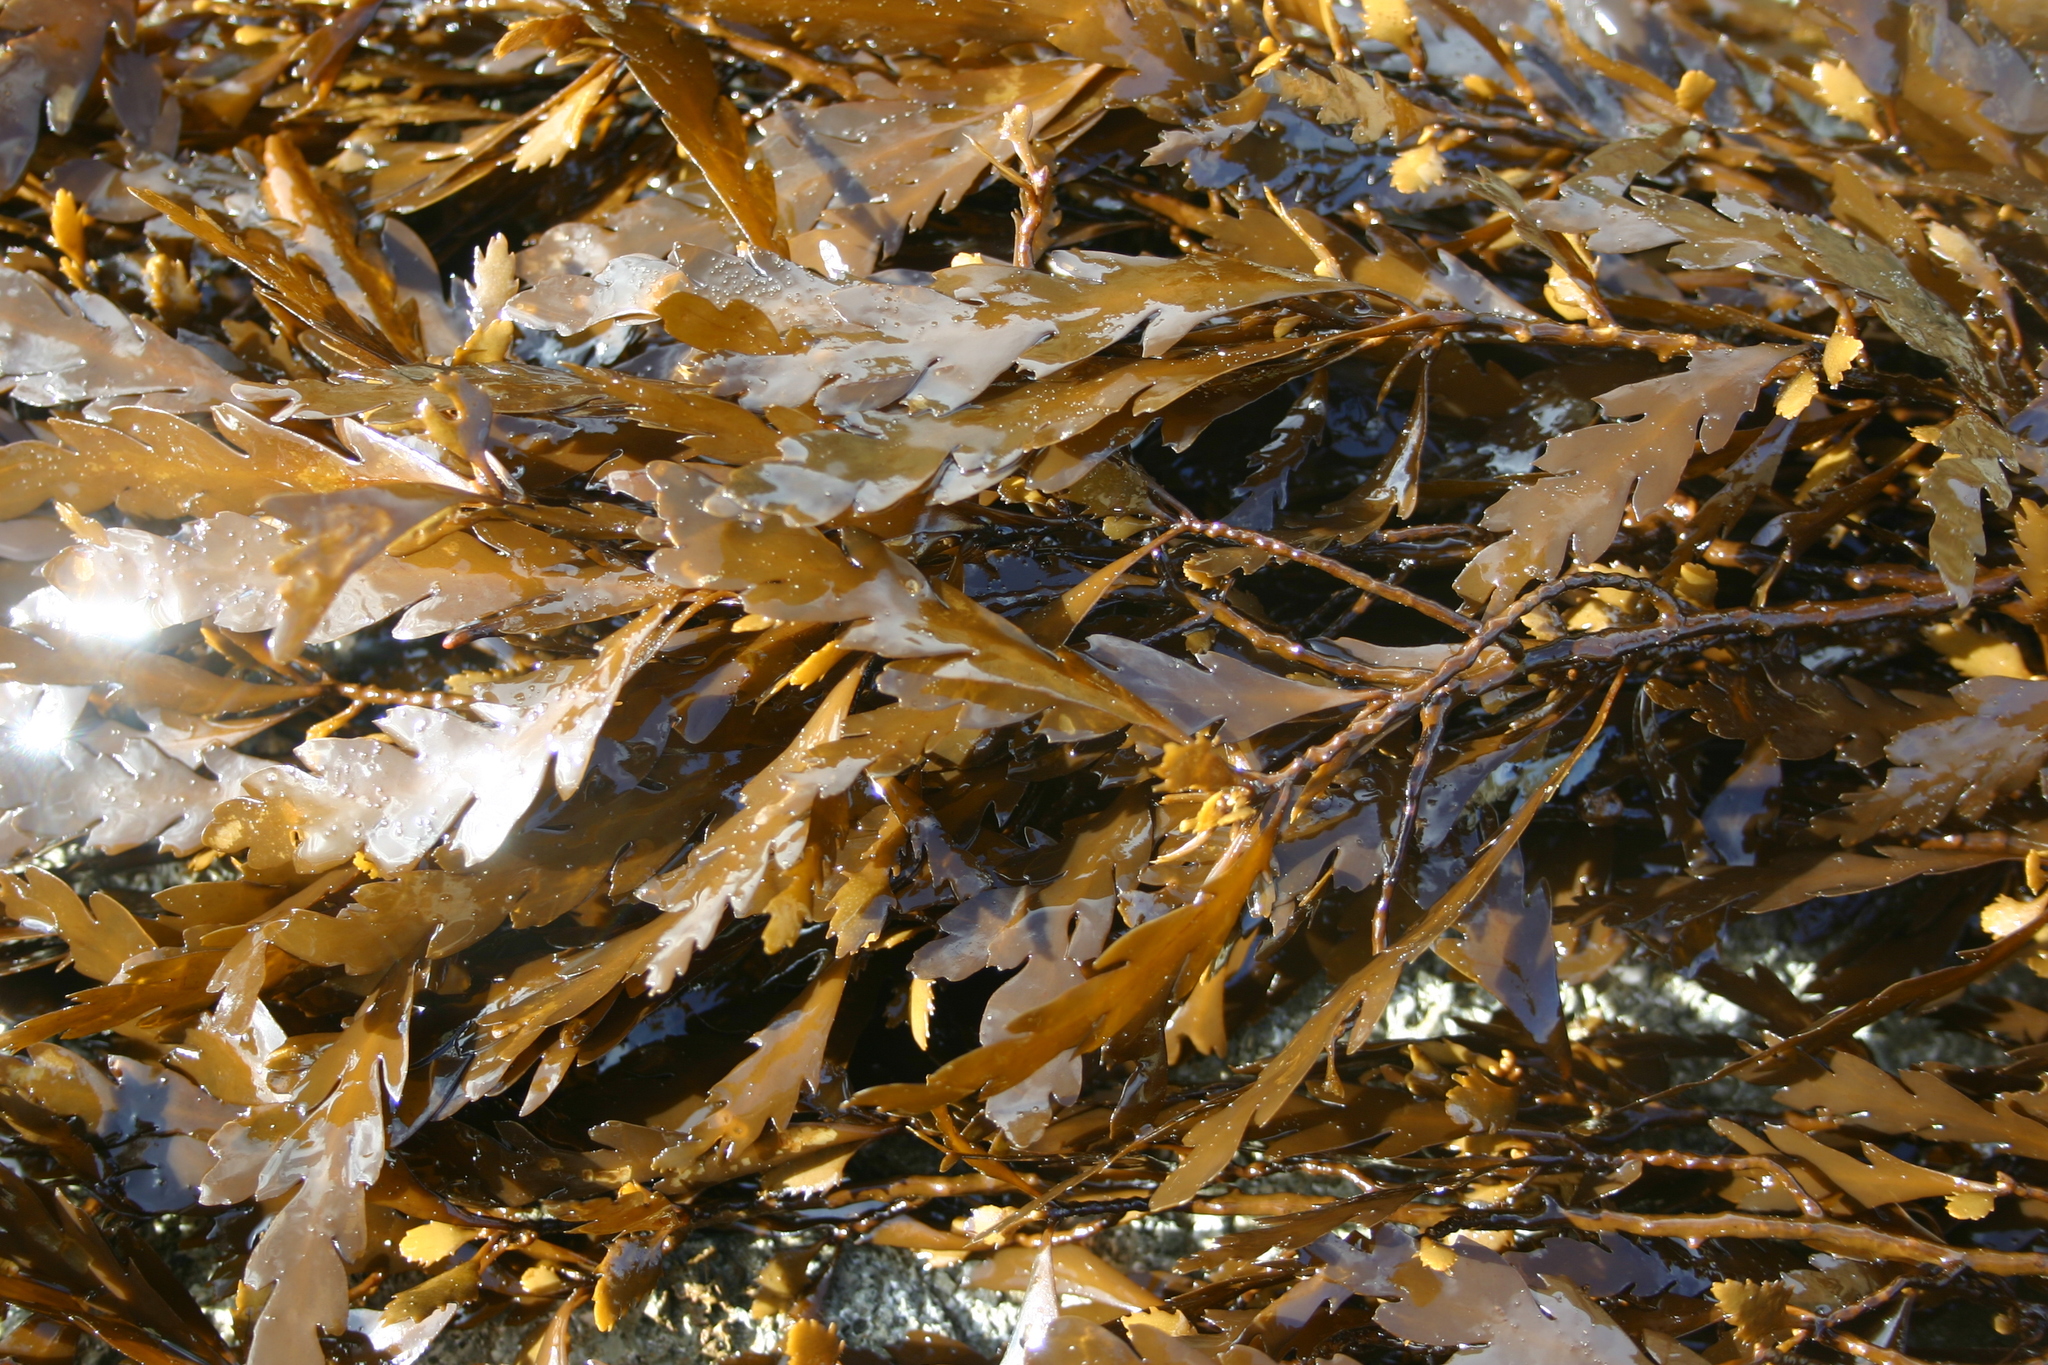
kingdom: Chromista
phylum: Ochrophyta
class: Phaeophyceae
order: Fucales
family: Sargassaceae
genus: Landsburgia
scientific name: Landsburgia quercifolia
